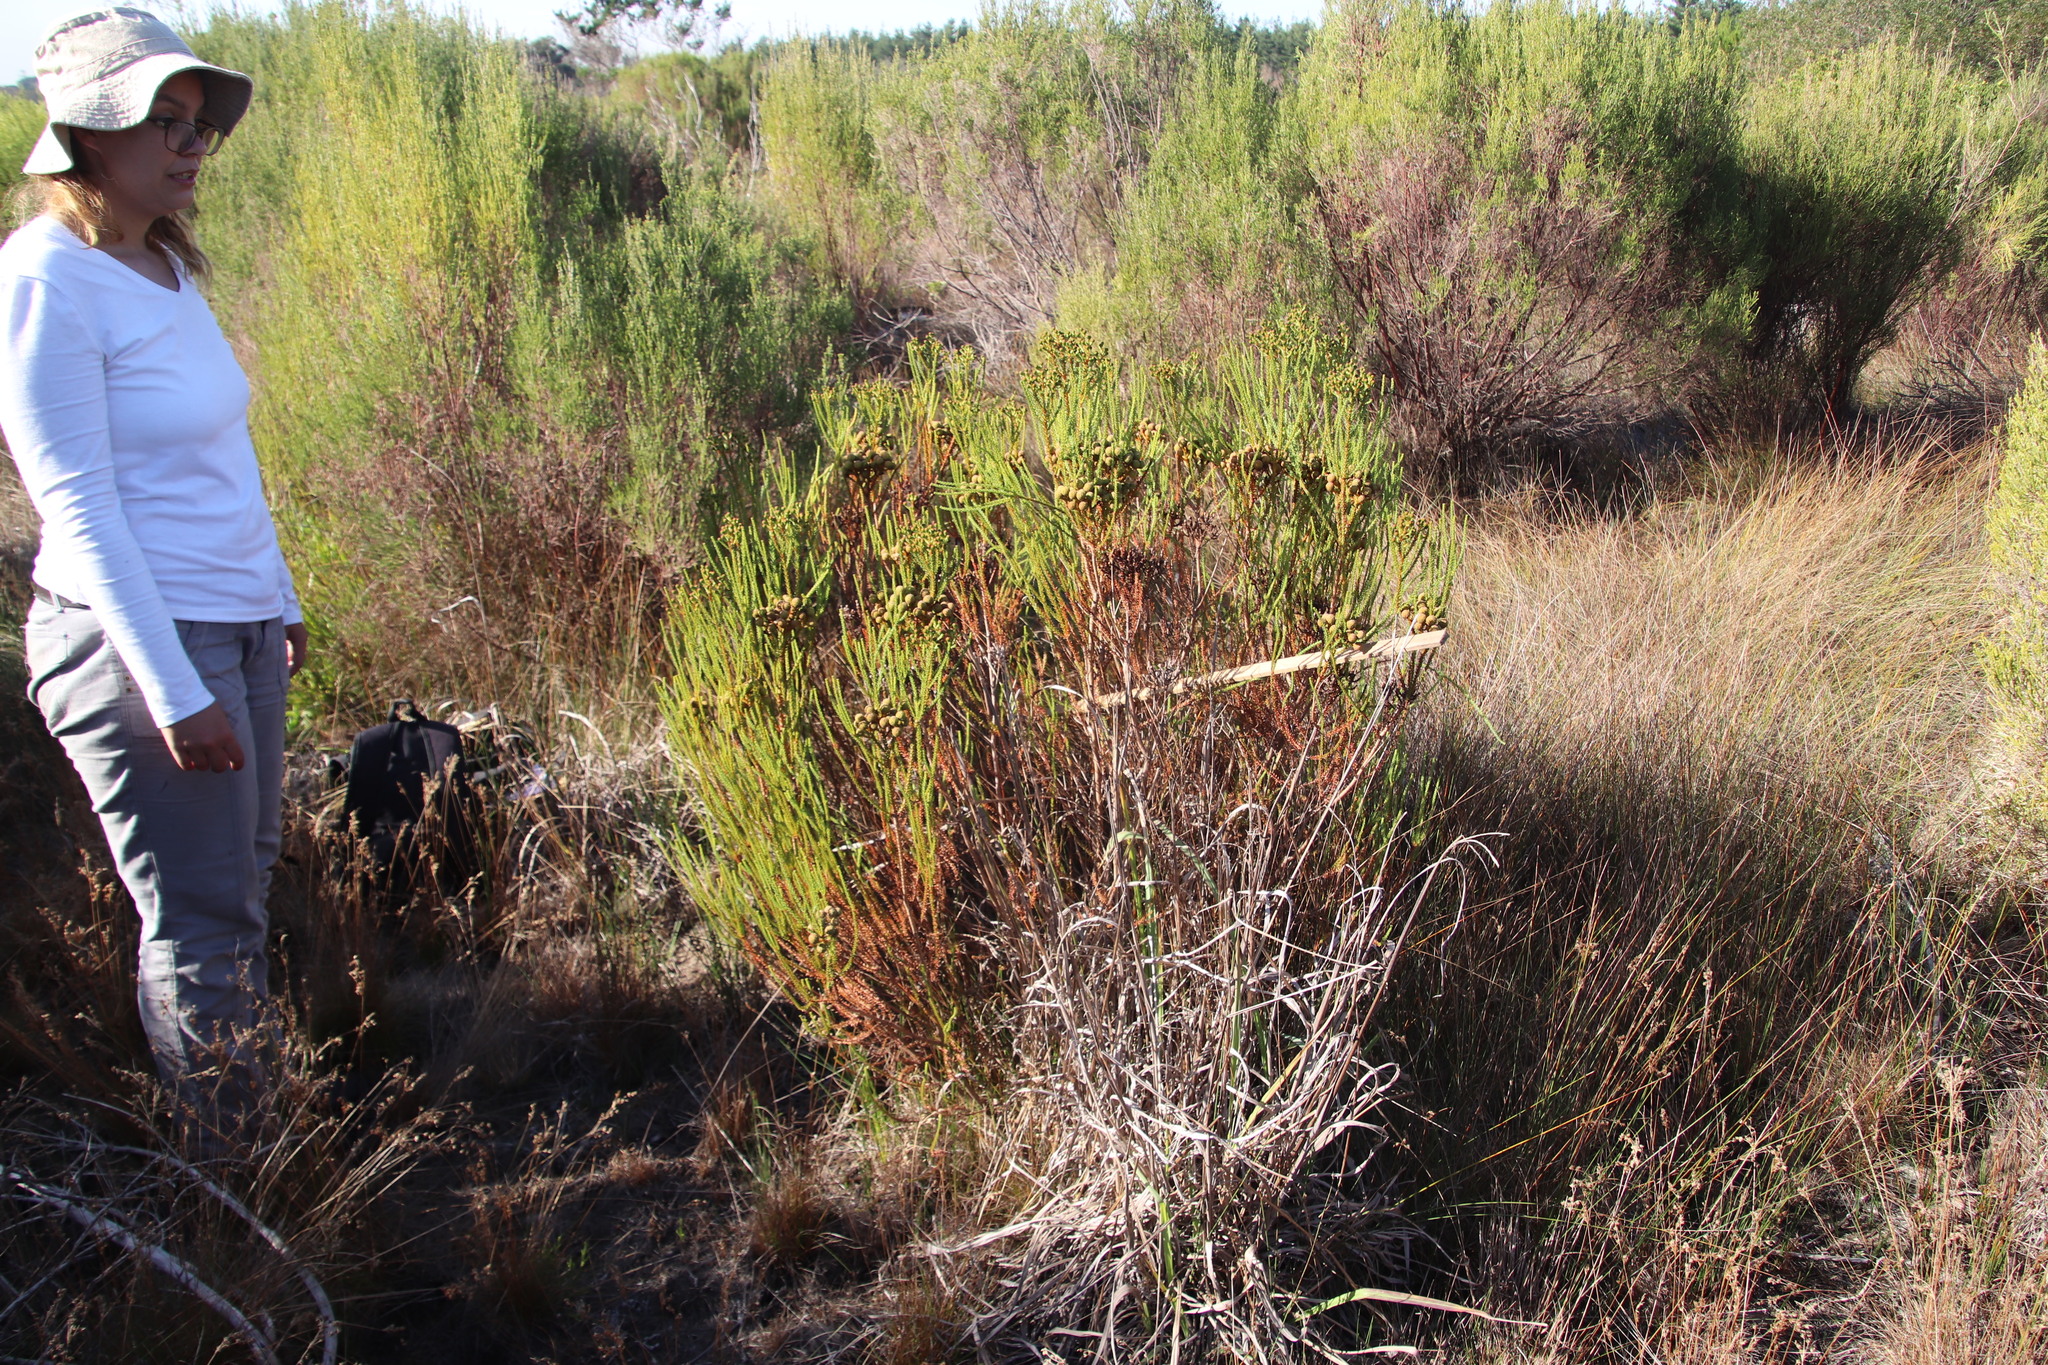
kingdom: Plantae
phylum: Tracheophyta
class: Magnoliopsida
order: Bruniales
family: Bruniaceae
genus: Berzelia
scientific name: Berzelia abrotanoides
